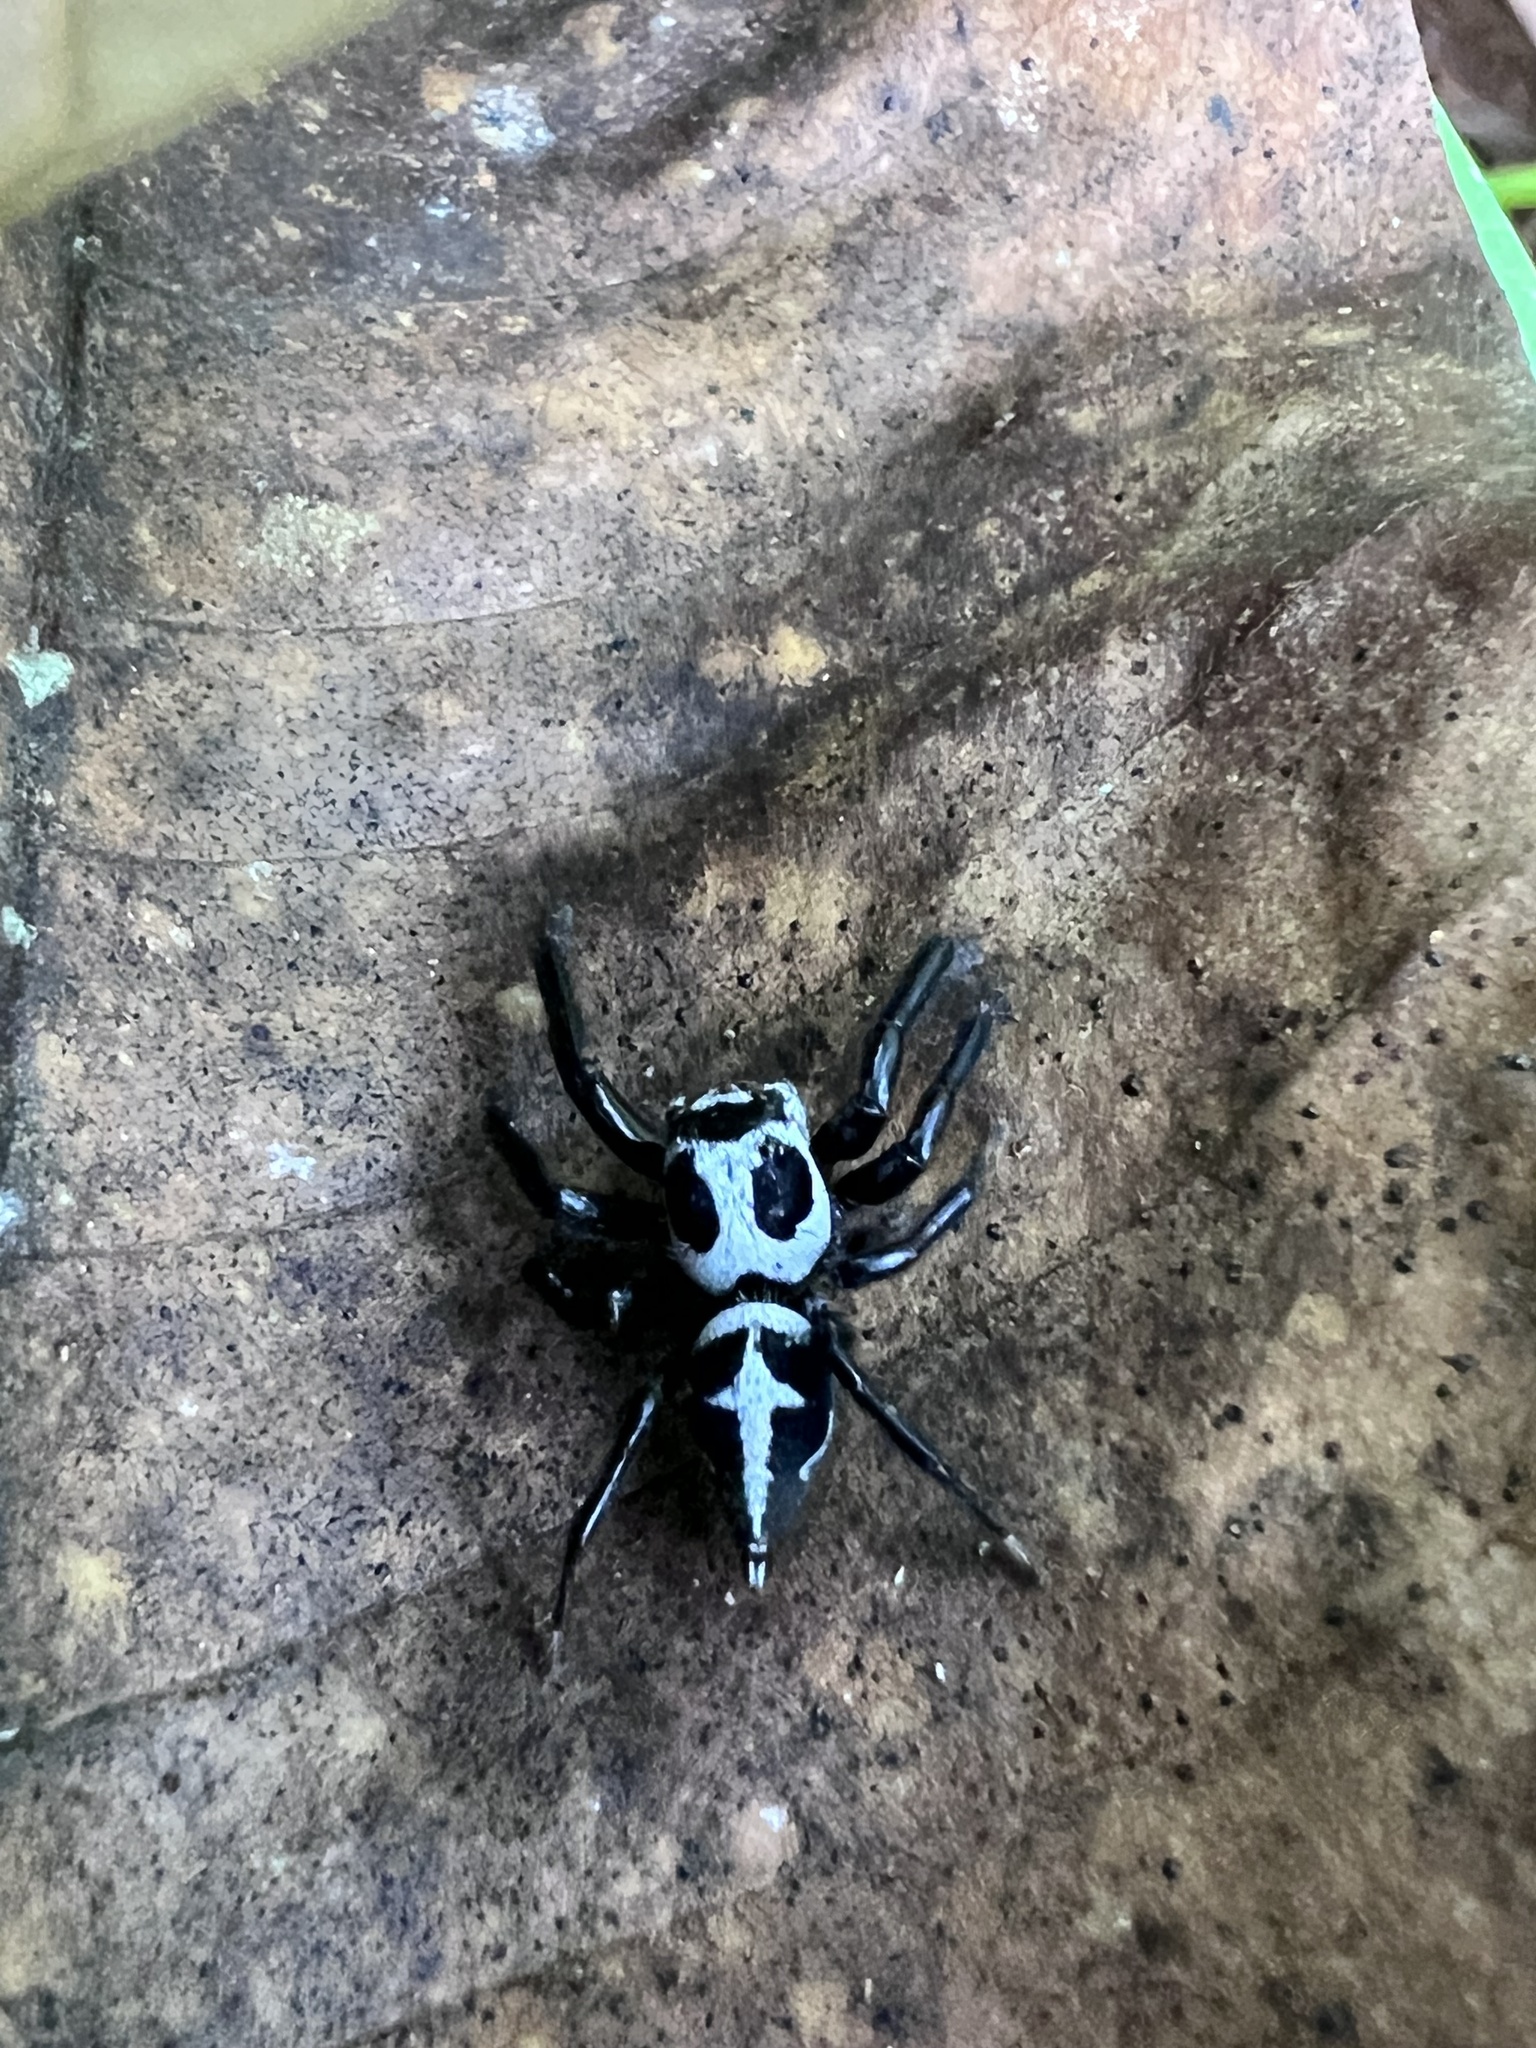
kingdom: Animalia
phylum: Arthropoda
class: Arachnida
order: Araneae
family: Salticidae
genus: Phiale
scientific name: Phiale formosa
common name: Jumping spiders
